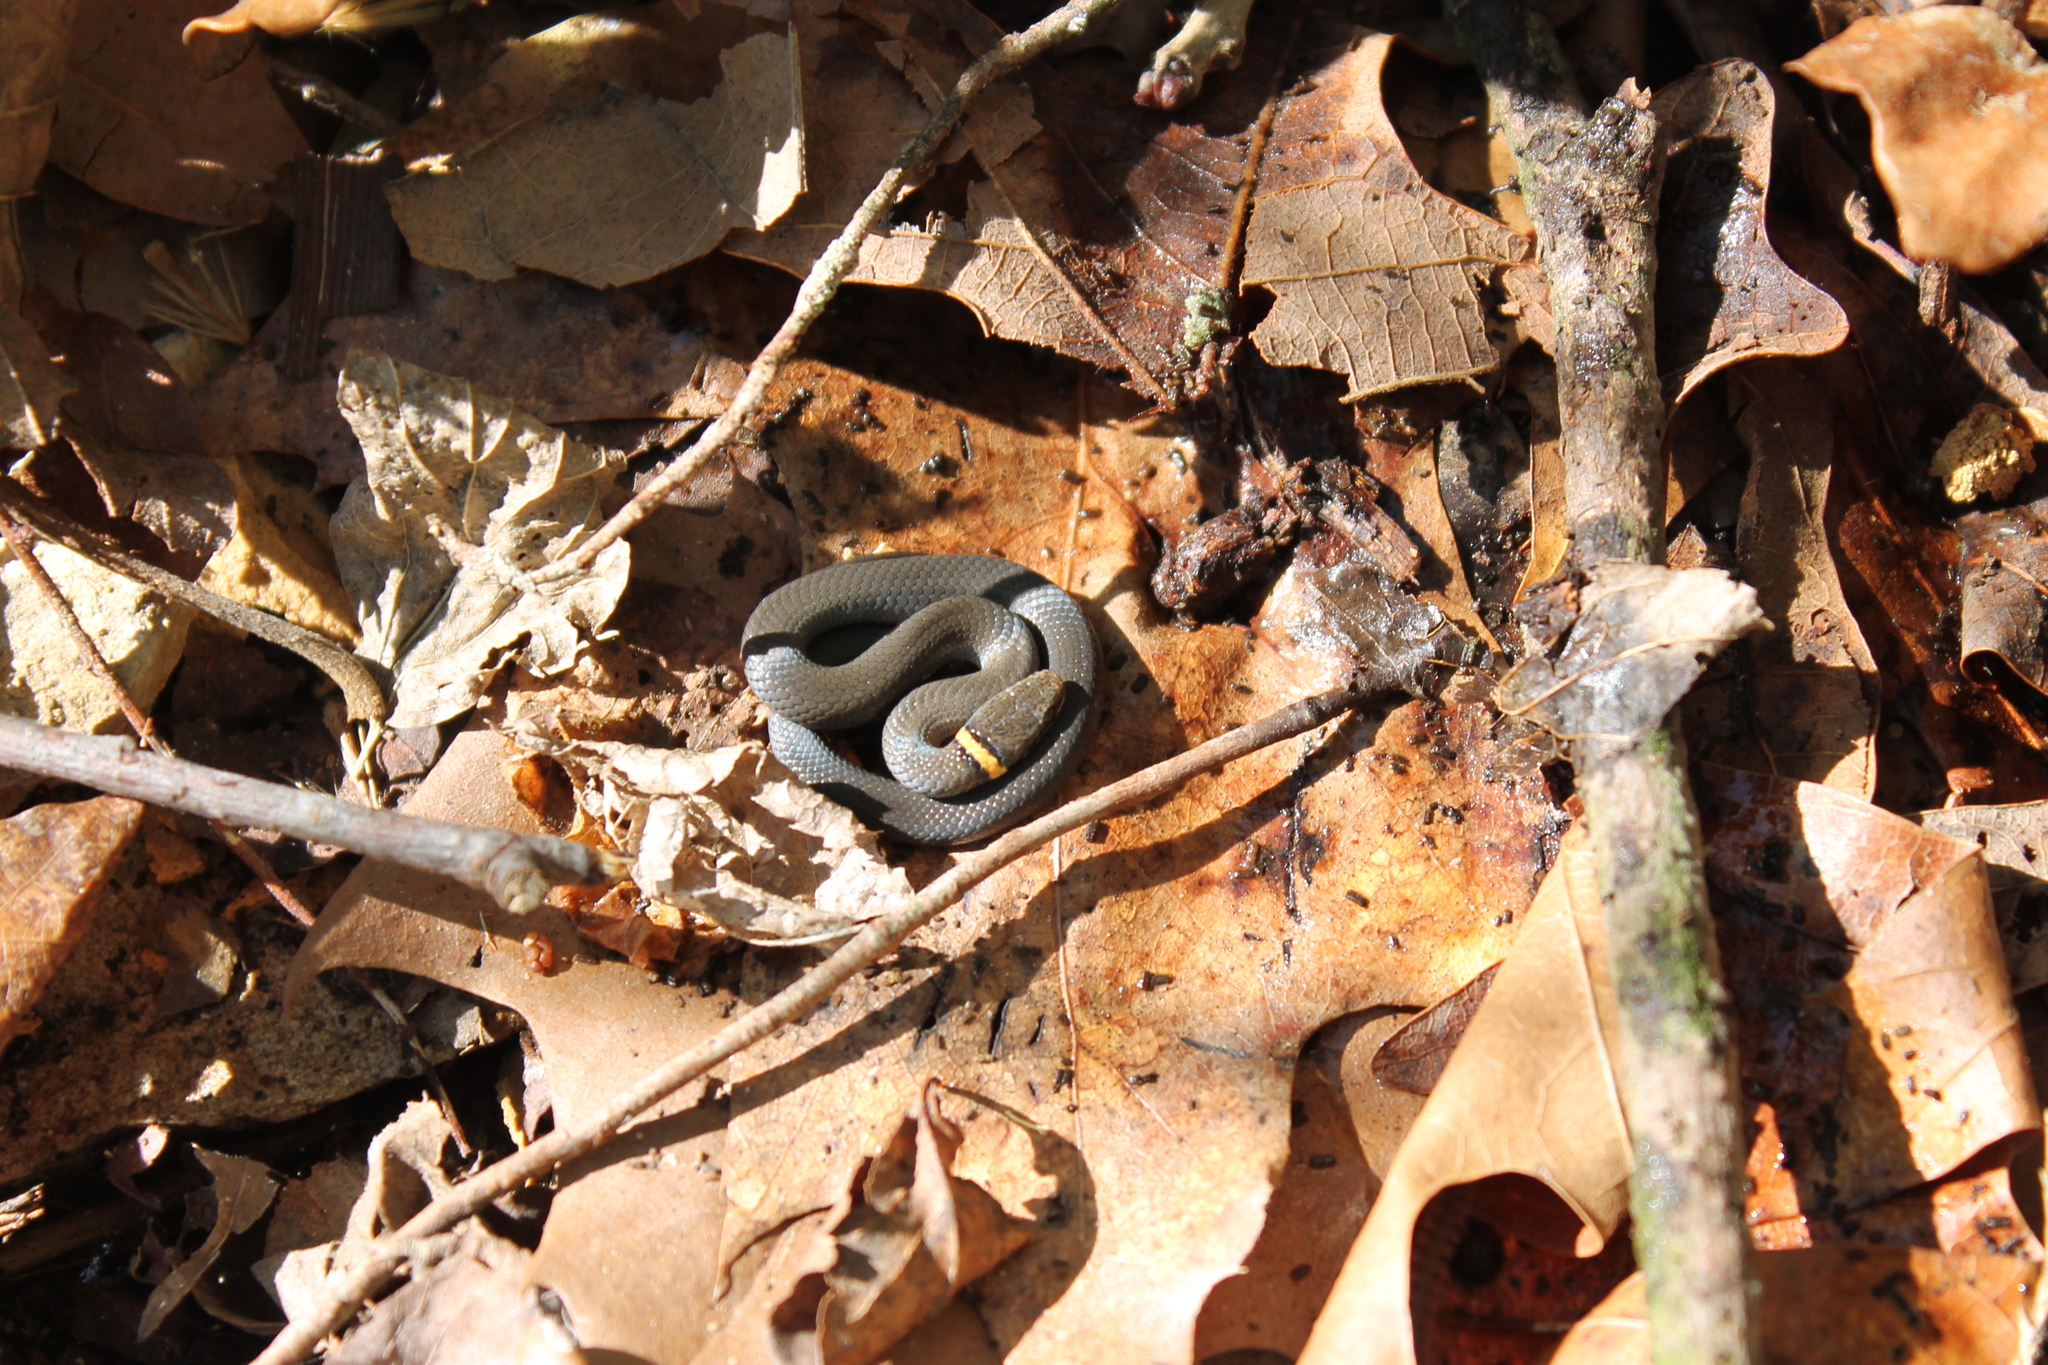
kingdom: Animalia
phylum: Chordata
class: Squamata
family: Colubridae
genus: Diadophis
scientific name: Diadophis punctatus
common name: Ringneck snake
